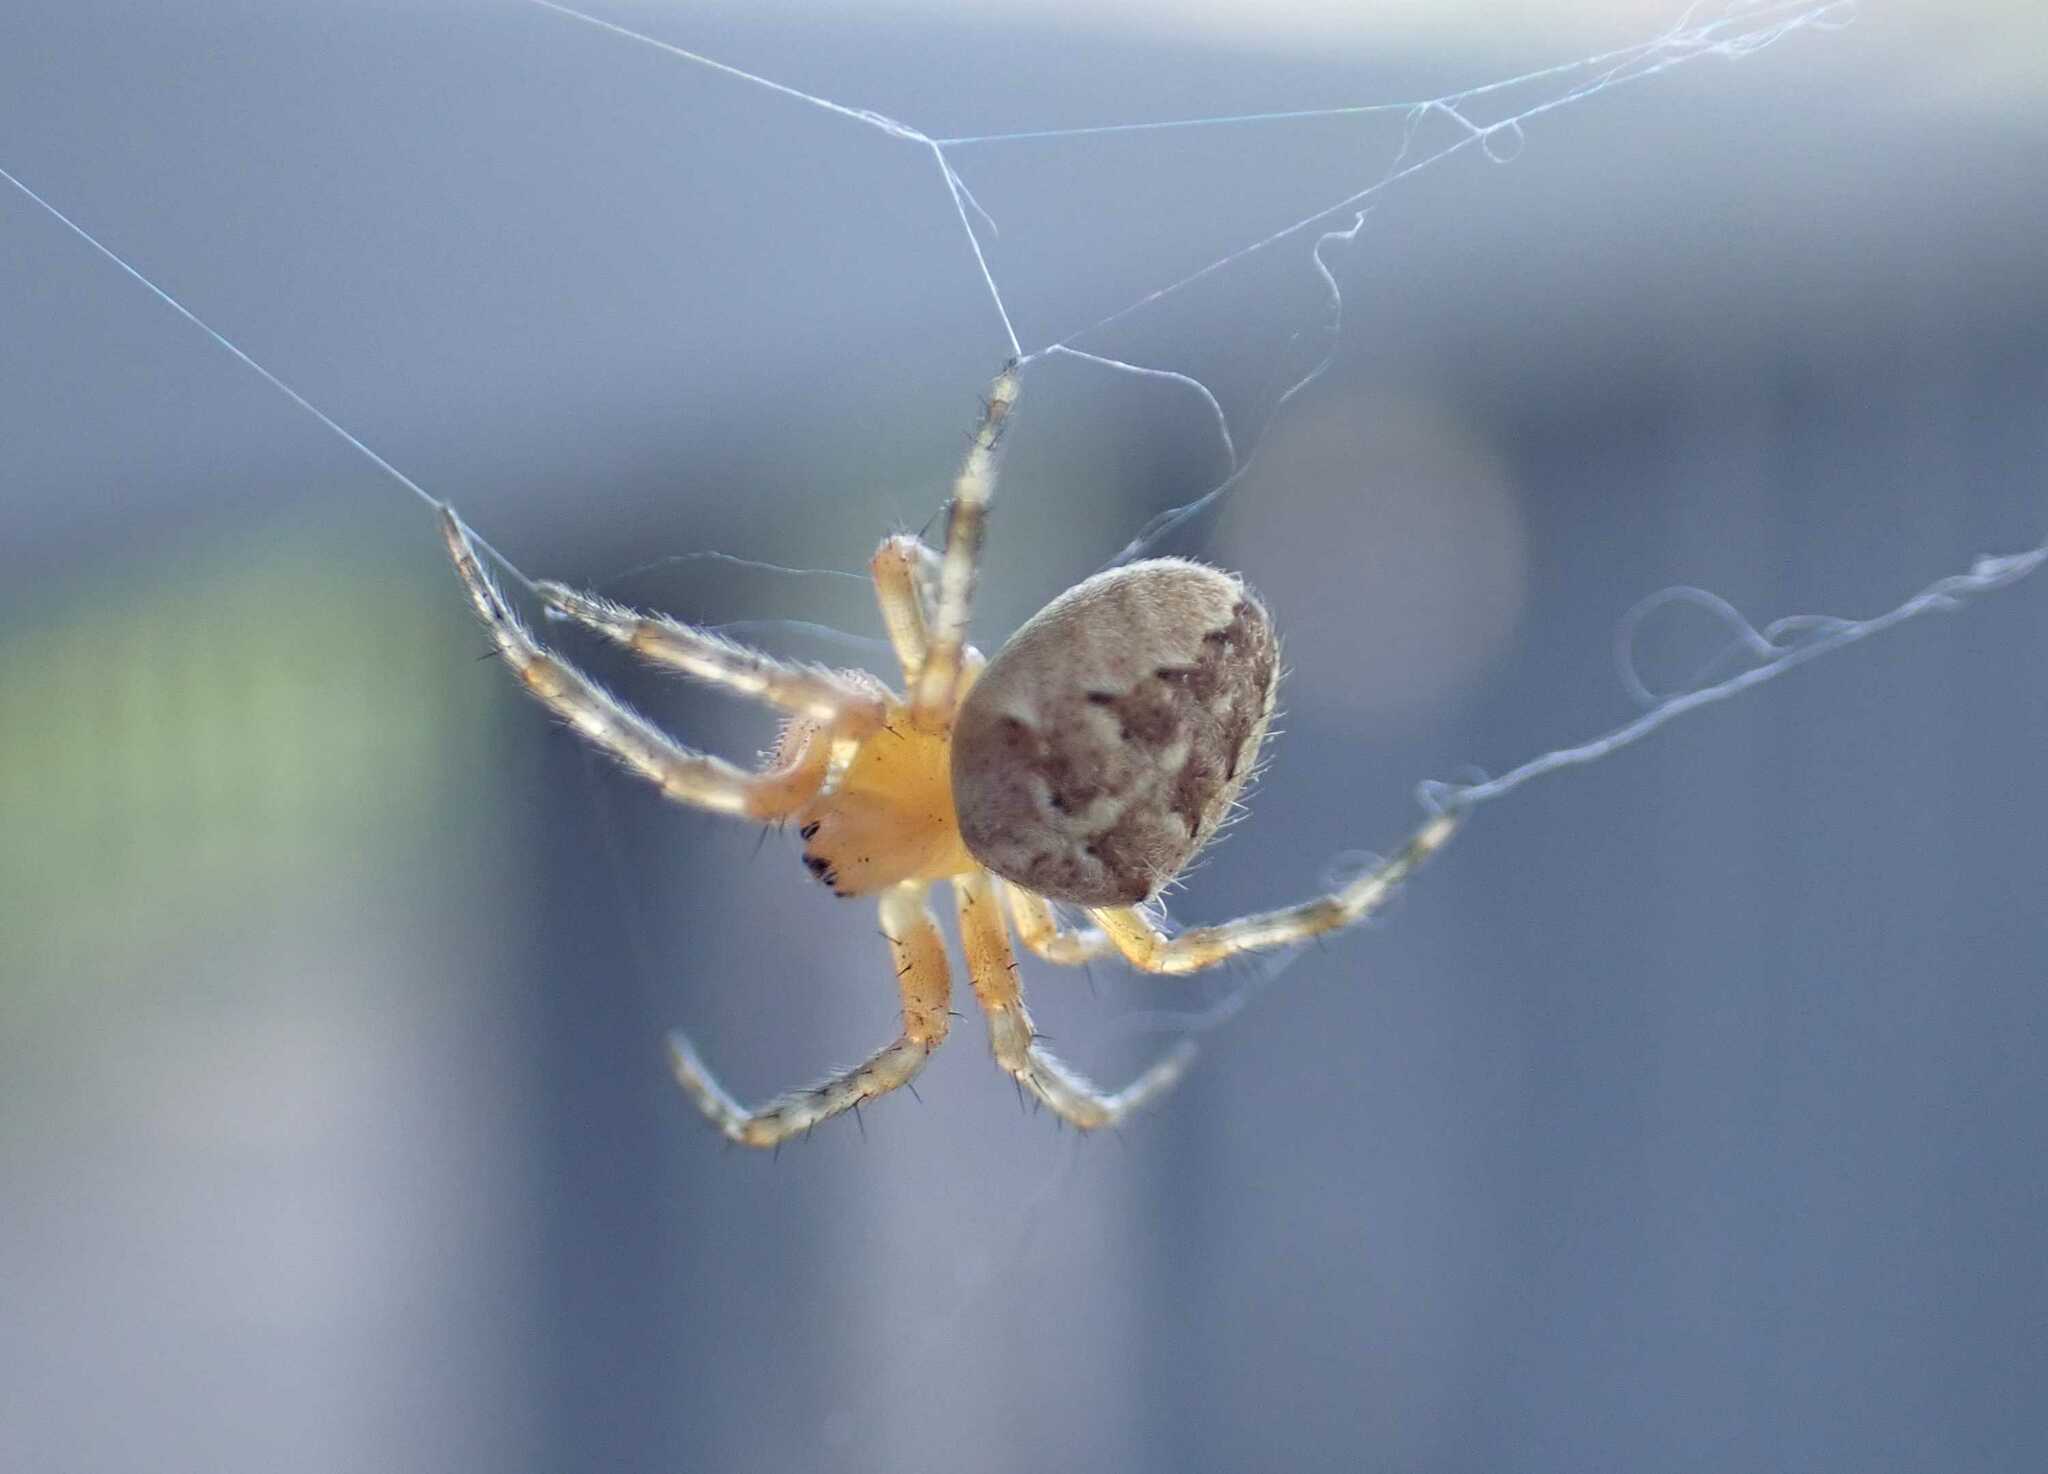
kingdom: Animalia
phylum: Arthropoda
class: Arachnida
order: Araneae
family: Araneidae
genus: Araneus
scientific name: Araneus diadematus
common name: Cross orbweaver
